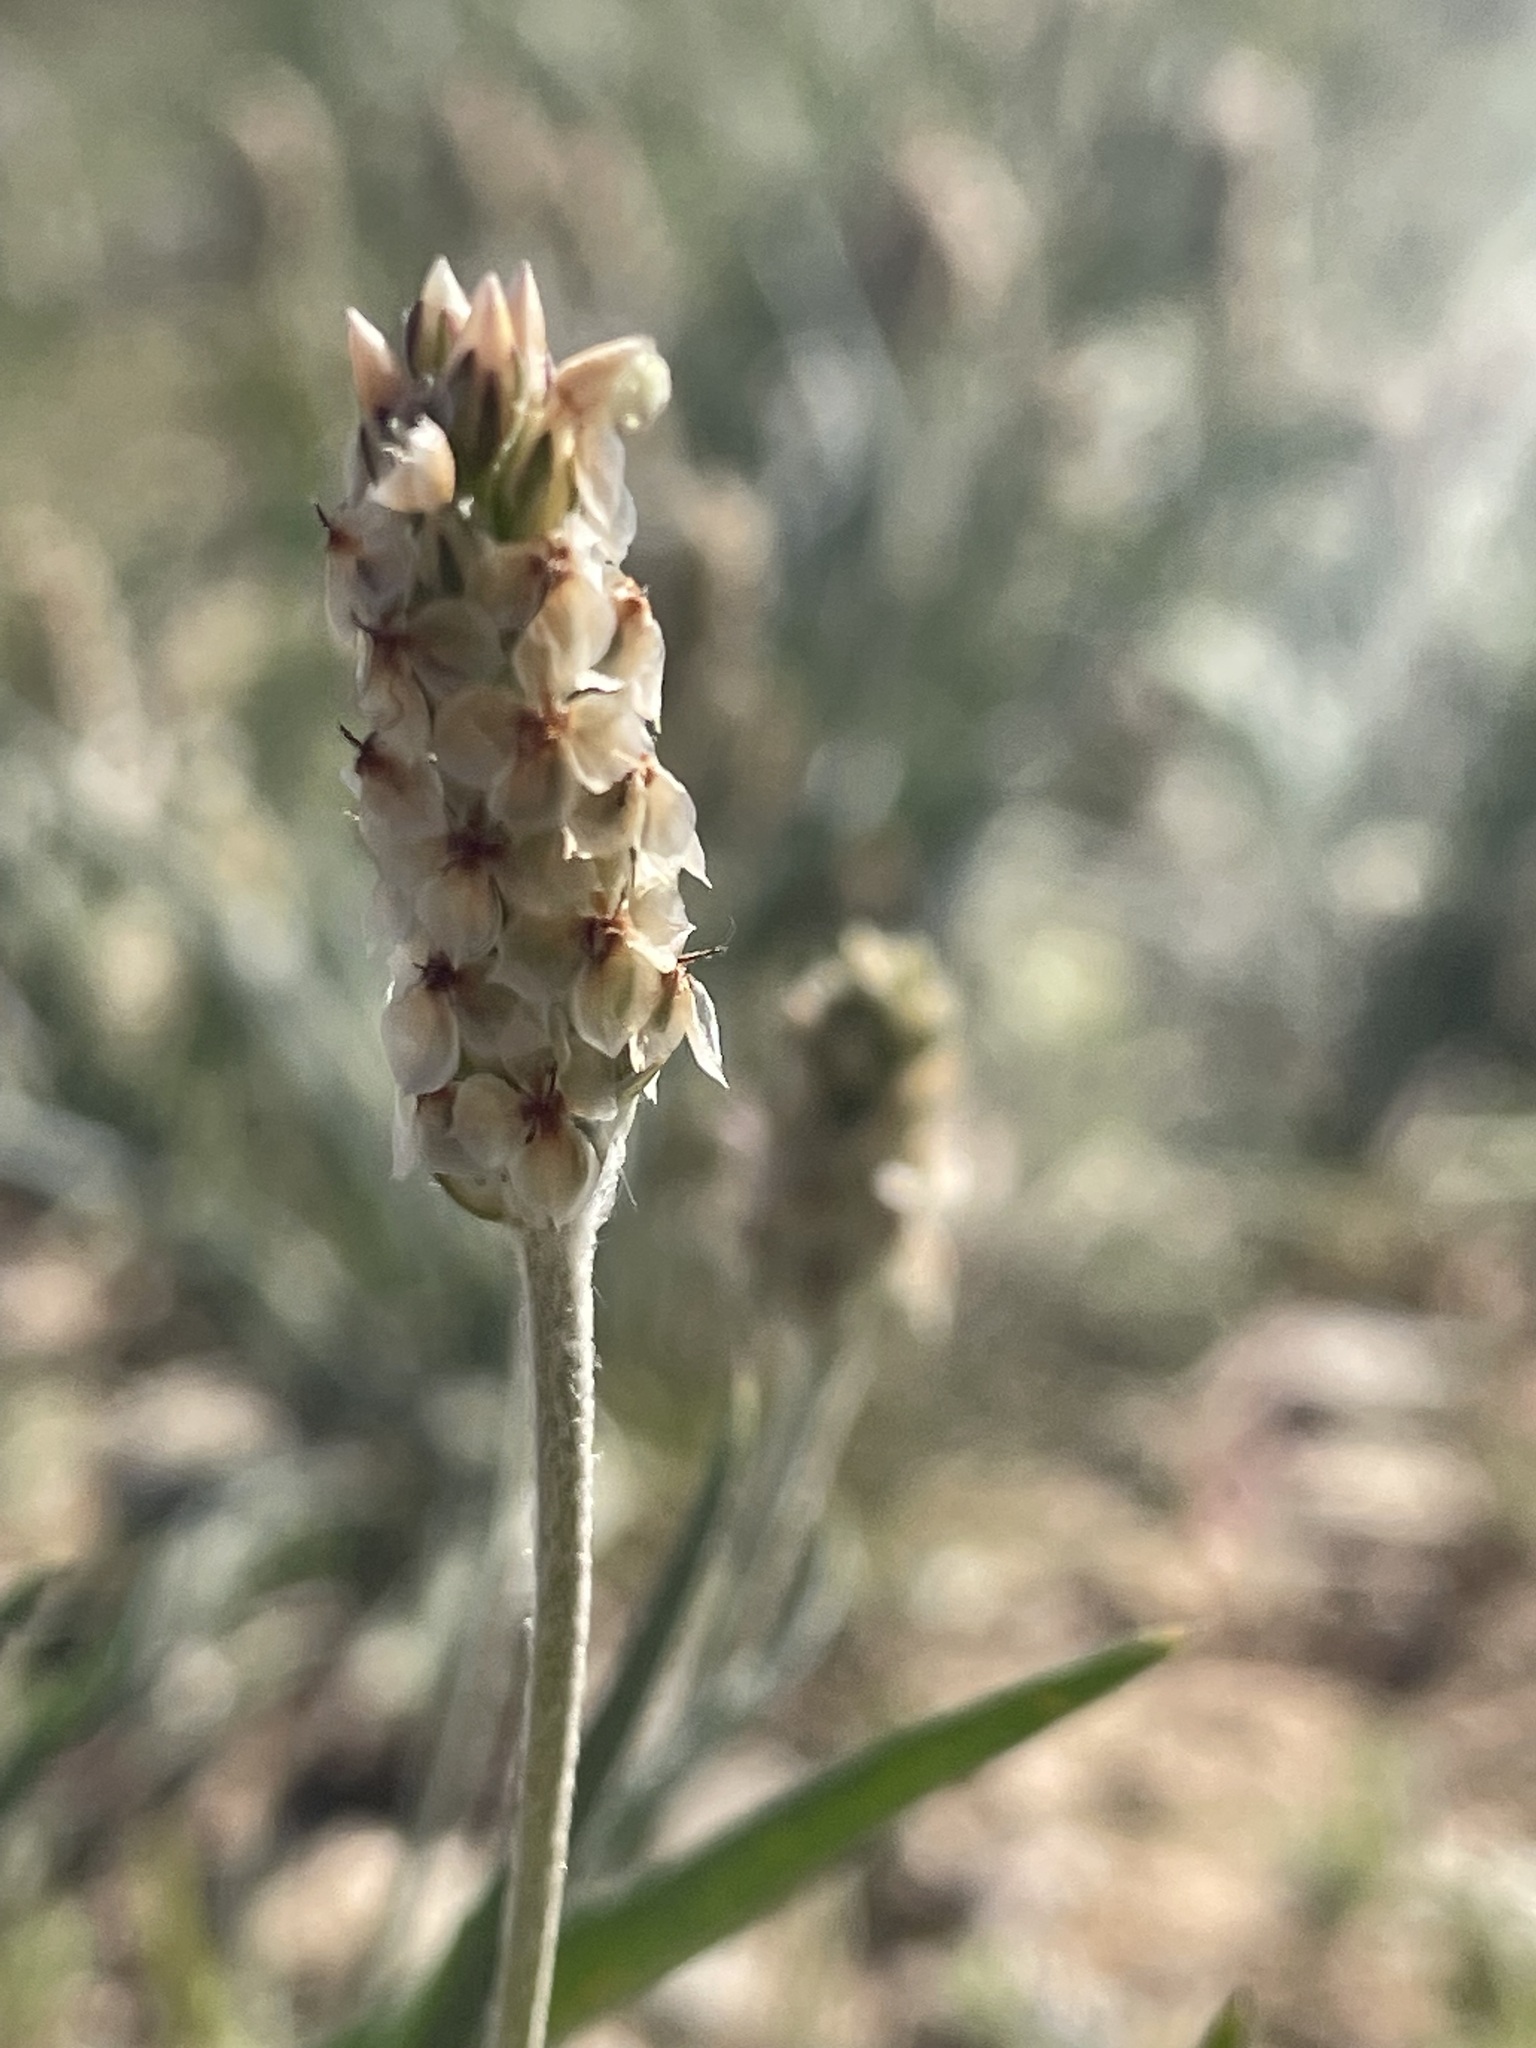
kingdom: Plantae
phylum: Tracheophyta
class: Magnoliopsida
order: Lamiales
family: Plantaginaceae
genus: Plantago
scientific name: Plantago ovata
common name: Blond plantain
